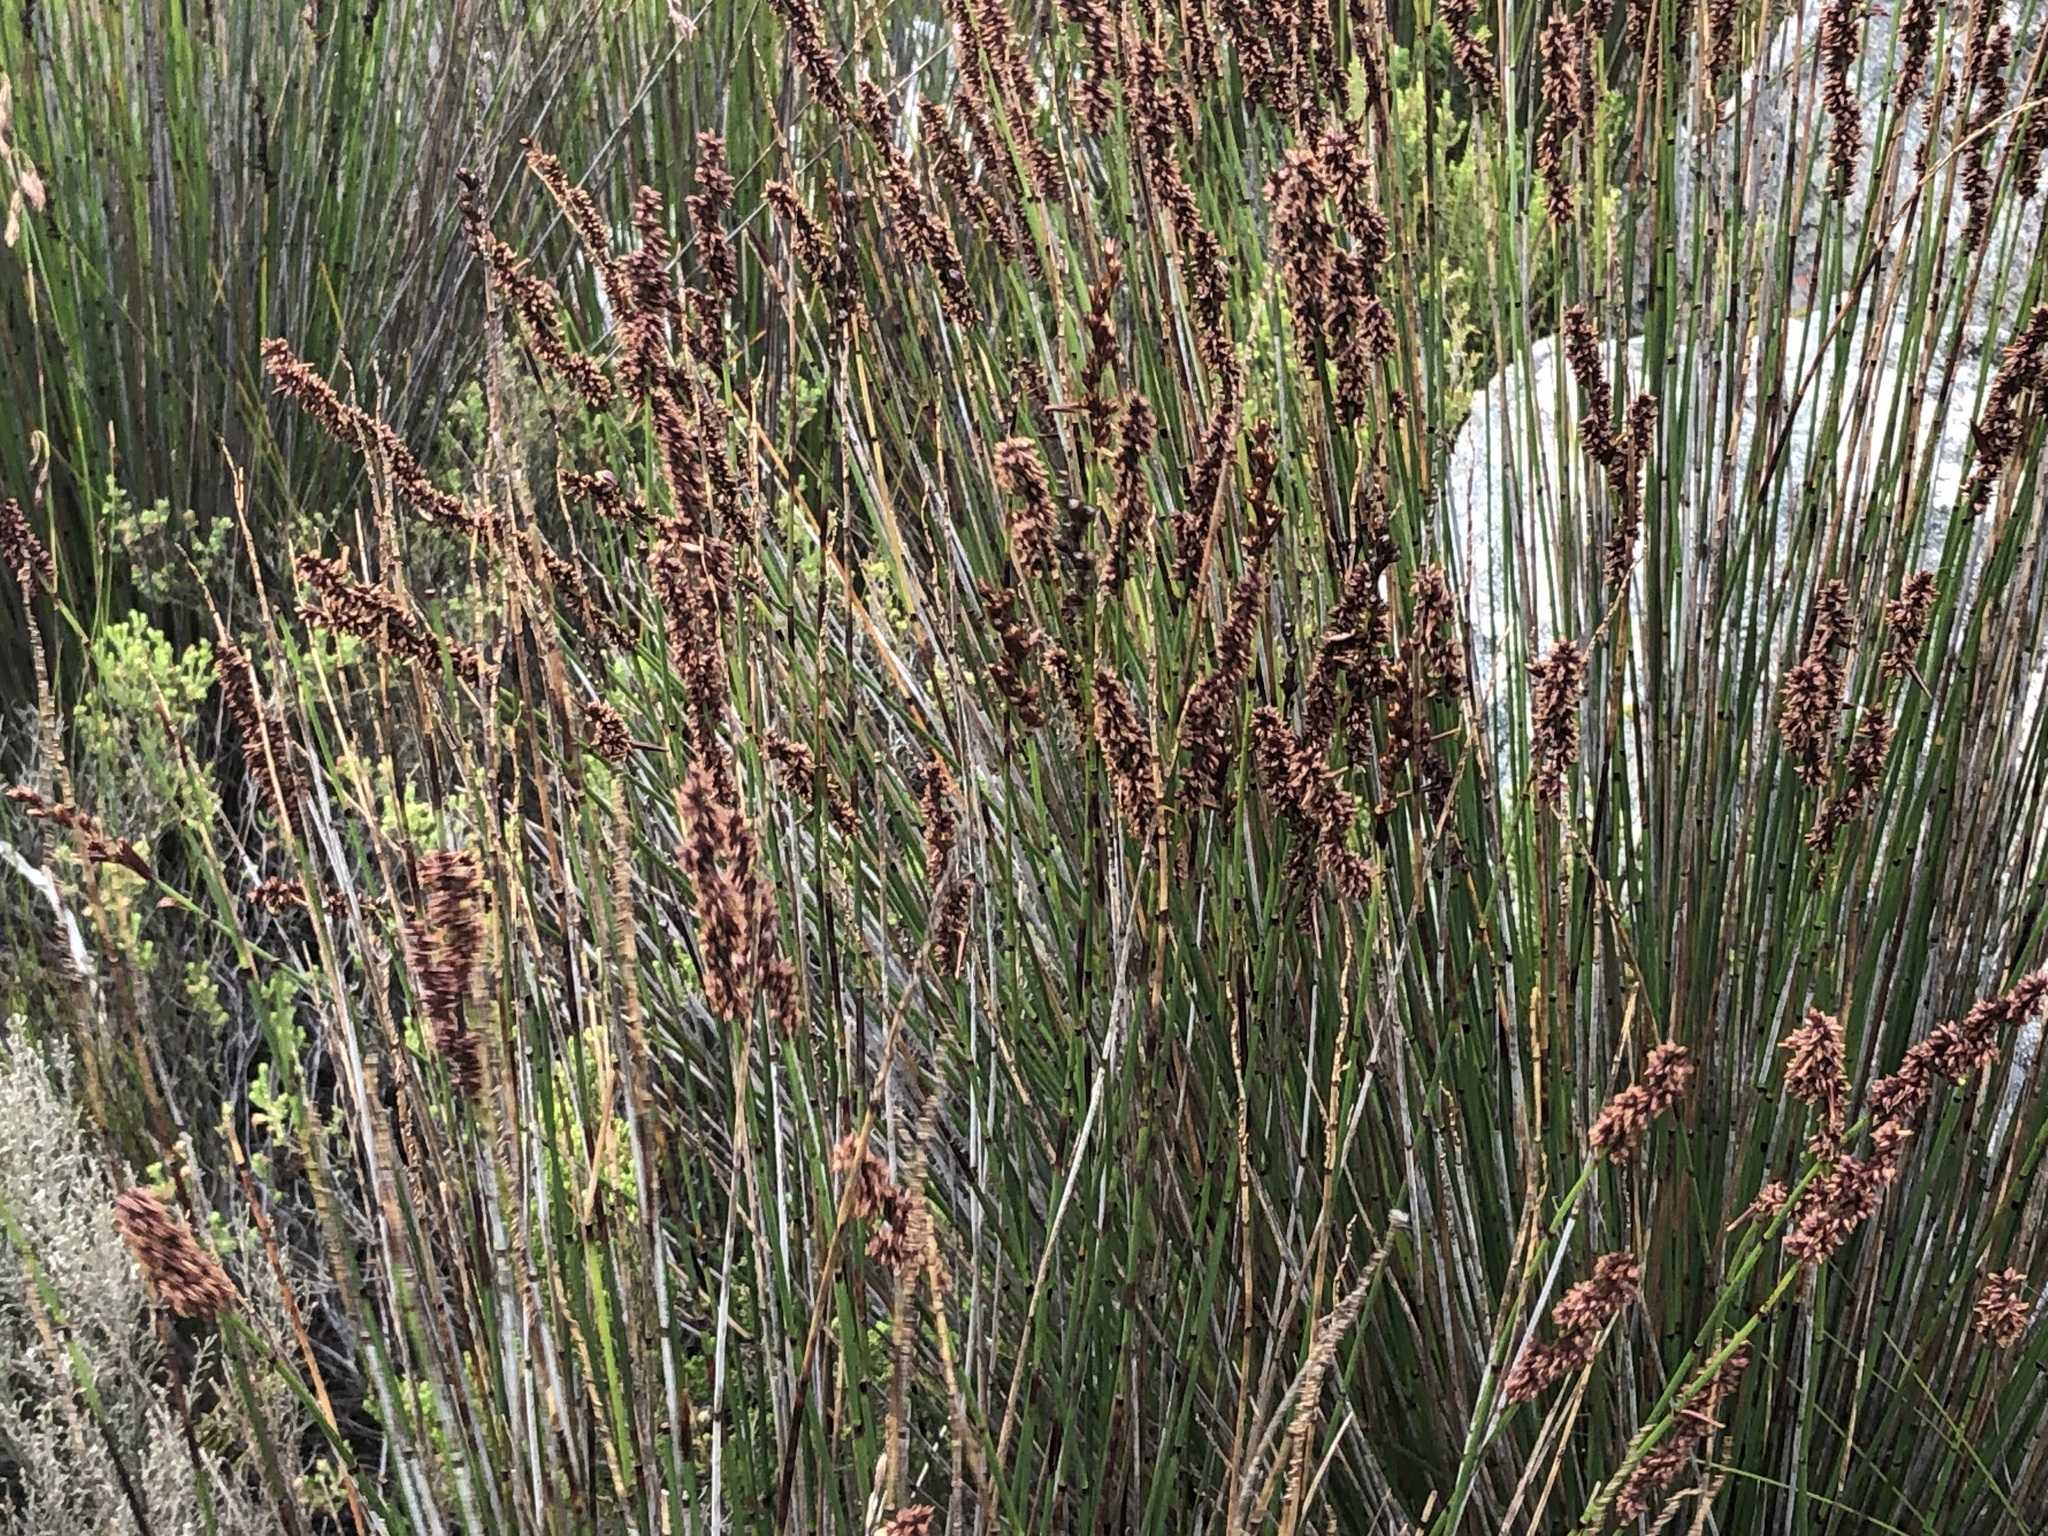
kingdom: Plantae
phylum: Tracheophyta
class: Liliopsida
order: Poales
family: Restionaceae
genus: Elegia
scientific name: Elegia tectorum
